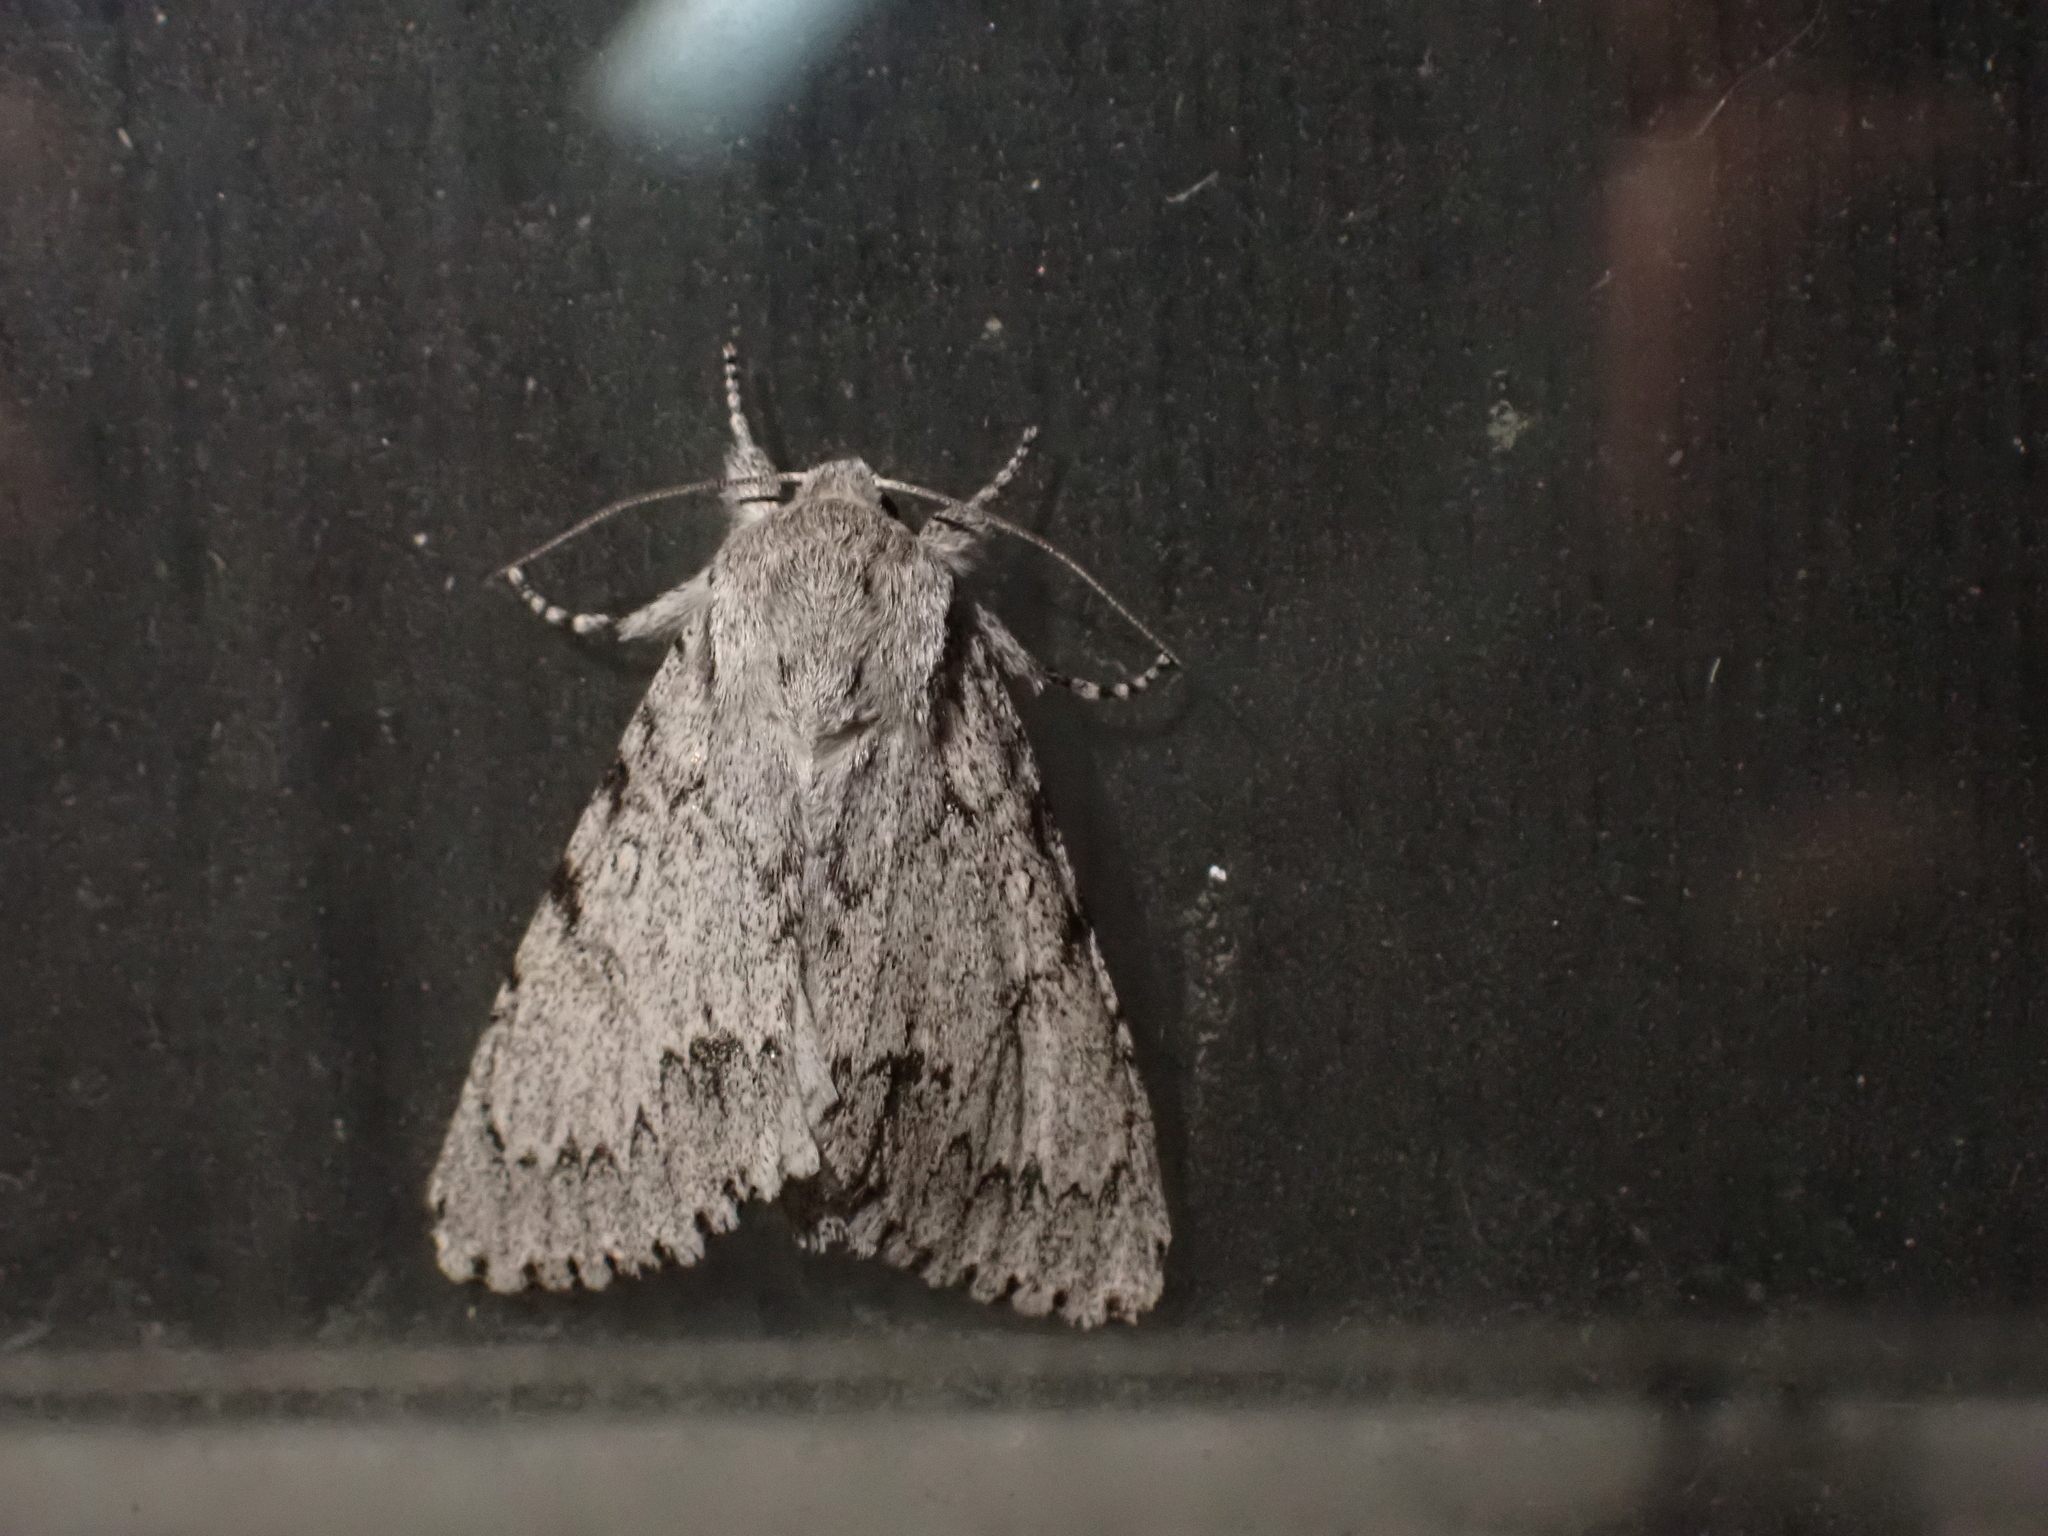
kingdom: Animalia
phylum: Arthropoda
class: Insecta
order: Lepidoptera
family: Noctuidae
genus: Acronicta
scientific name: Acronicta lepusculina
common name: Cottonwood dagger
